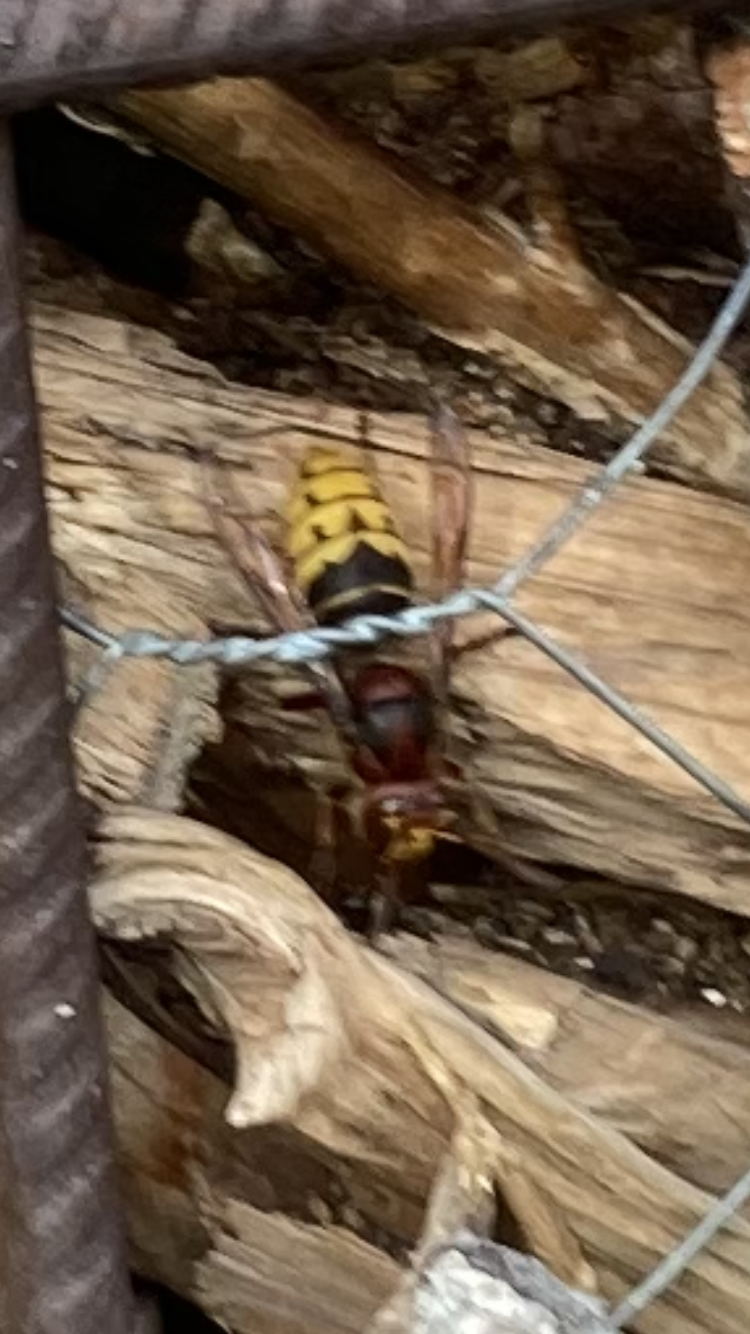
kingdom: Animalia
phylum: Arthropoda
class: Insecta
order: Hymenoptera
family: Vespidae
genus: Vespa
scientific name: Vespa crabro
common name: Hornet
